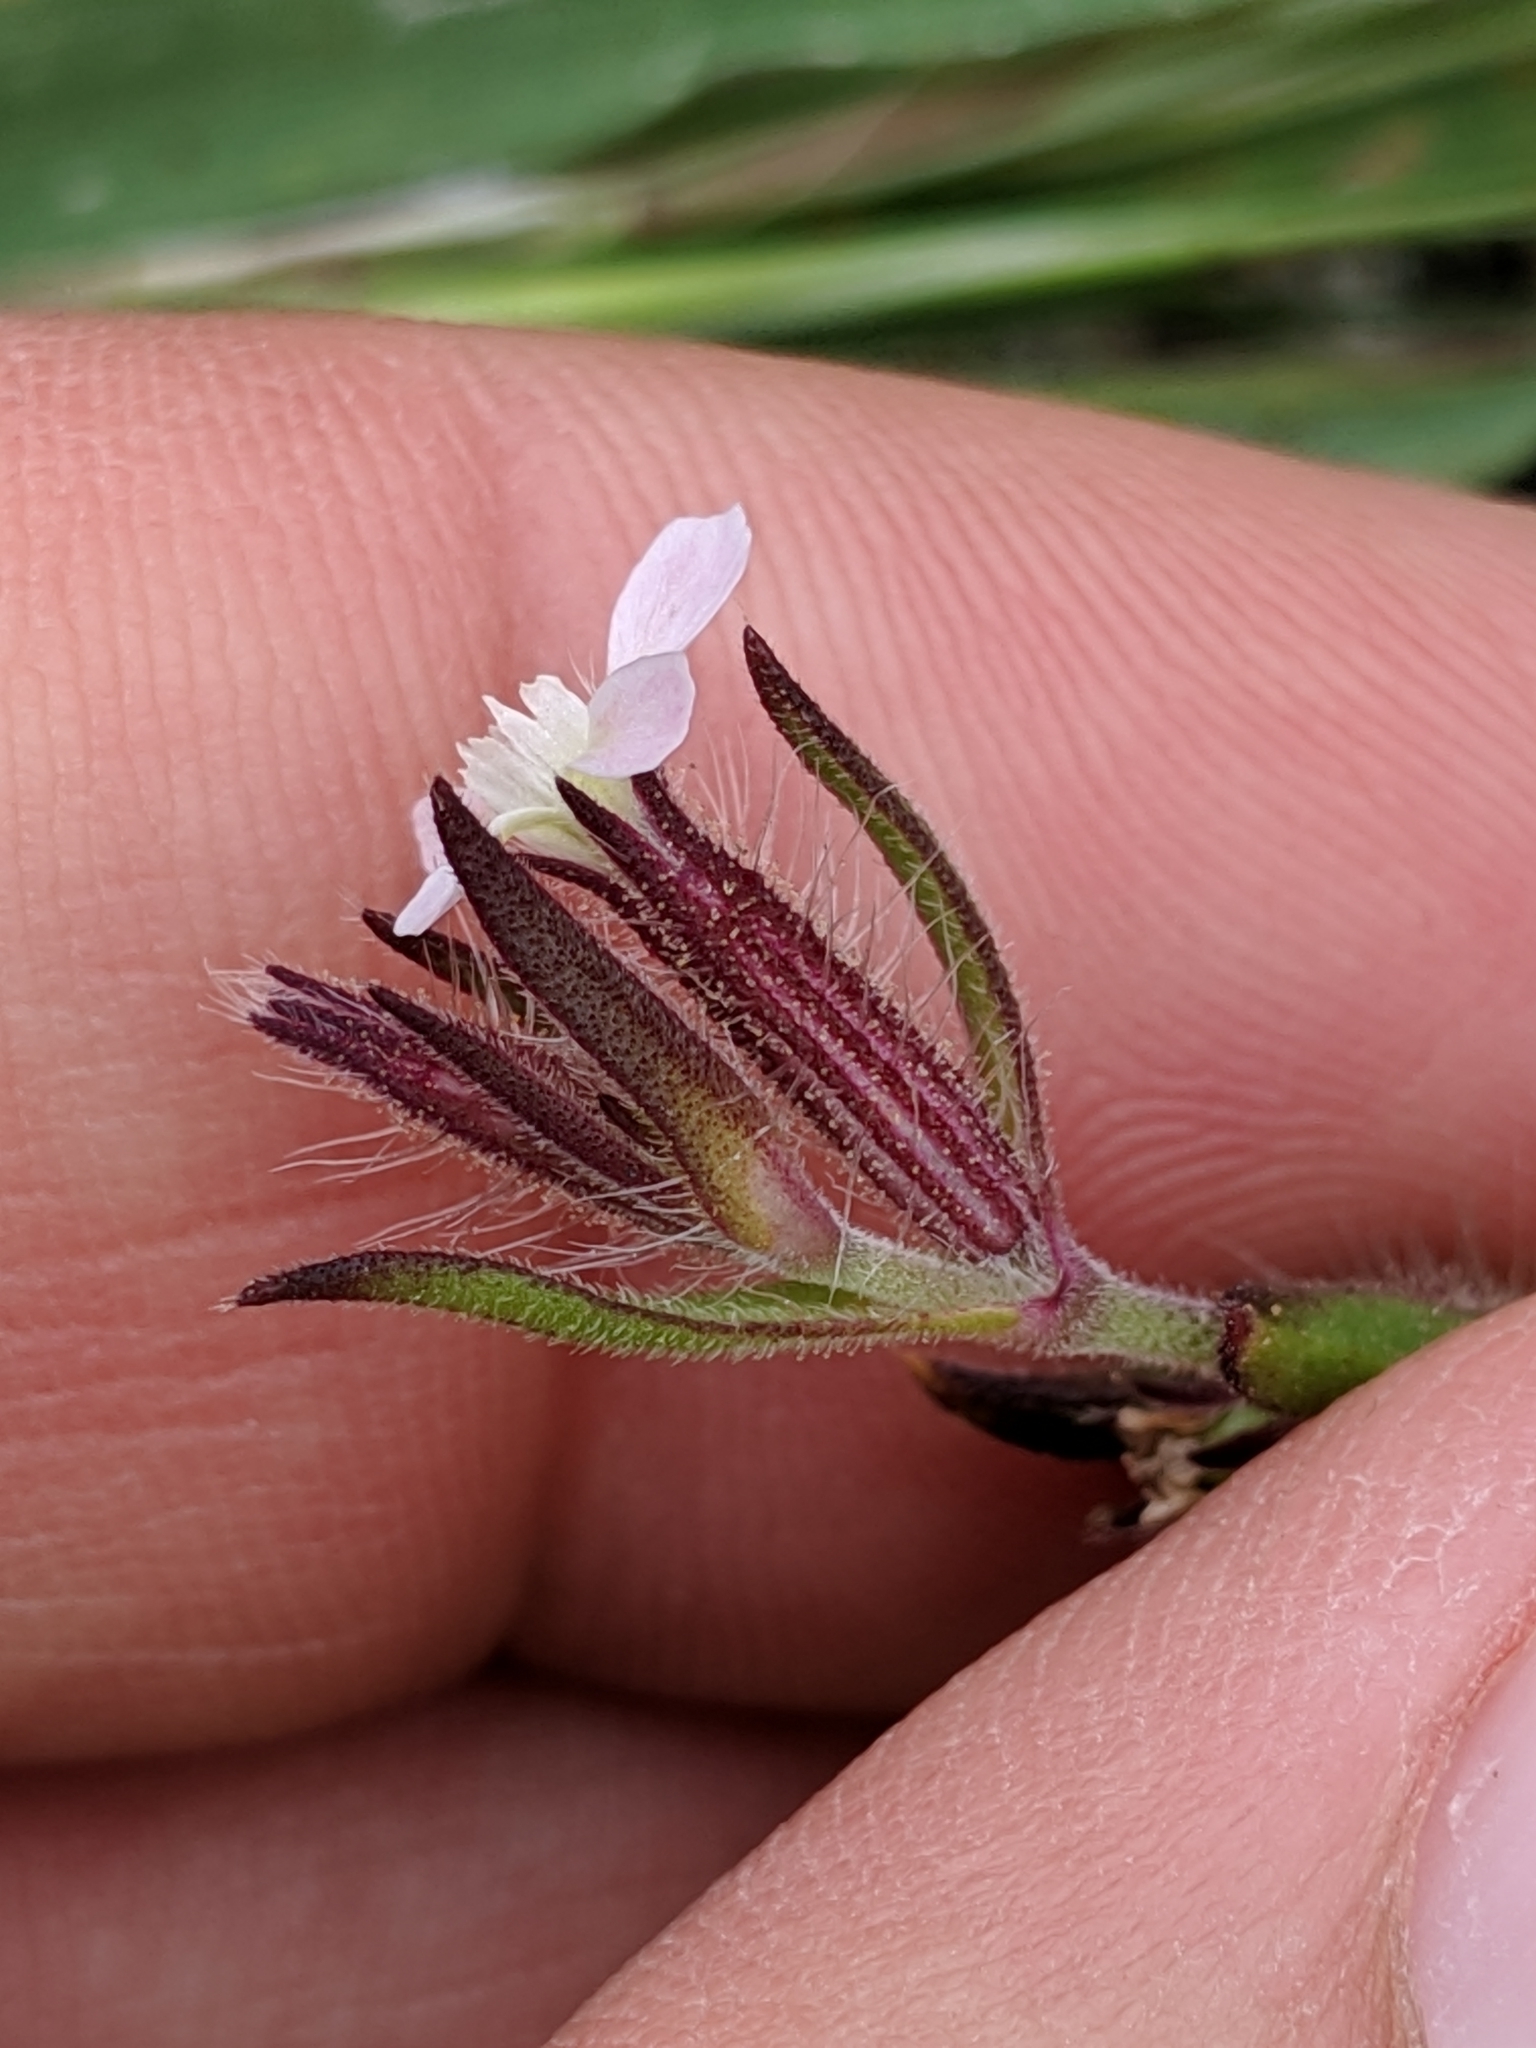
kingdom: Plantae
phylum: Tracheophyta
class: Magnoliopsida
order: Caryophyllales
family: Caryophyllaceae
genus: Silene
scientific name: Silene gallica
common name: Small-flowered catchfly
